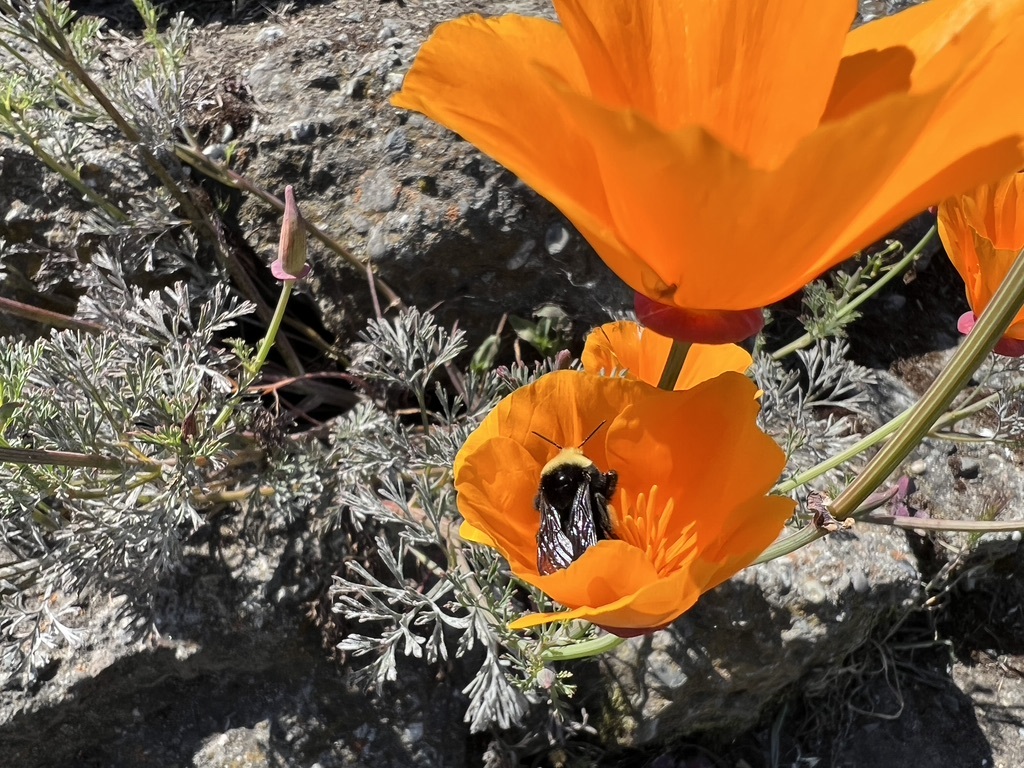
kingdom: Plantae
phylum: Tracheophyta
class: Magnoliopsida
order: Ranunculales
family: Papaveraceae
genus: Eschscholzia
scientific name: Eschscholzia californica
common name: California poppy
